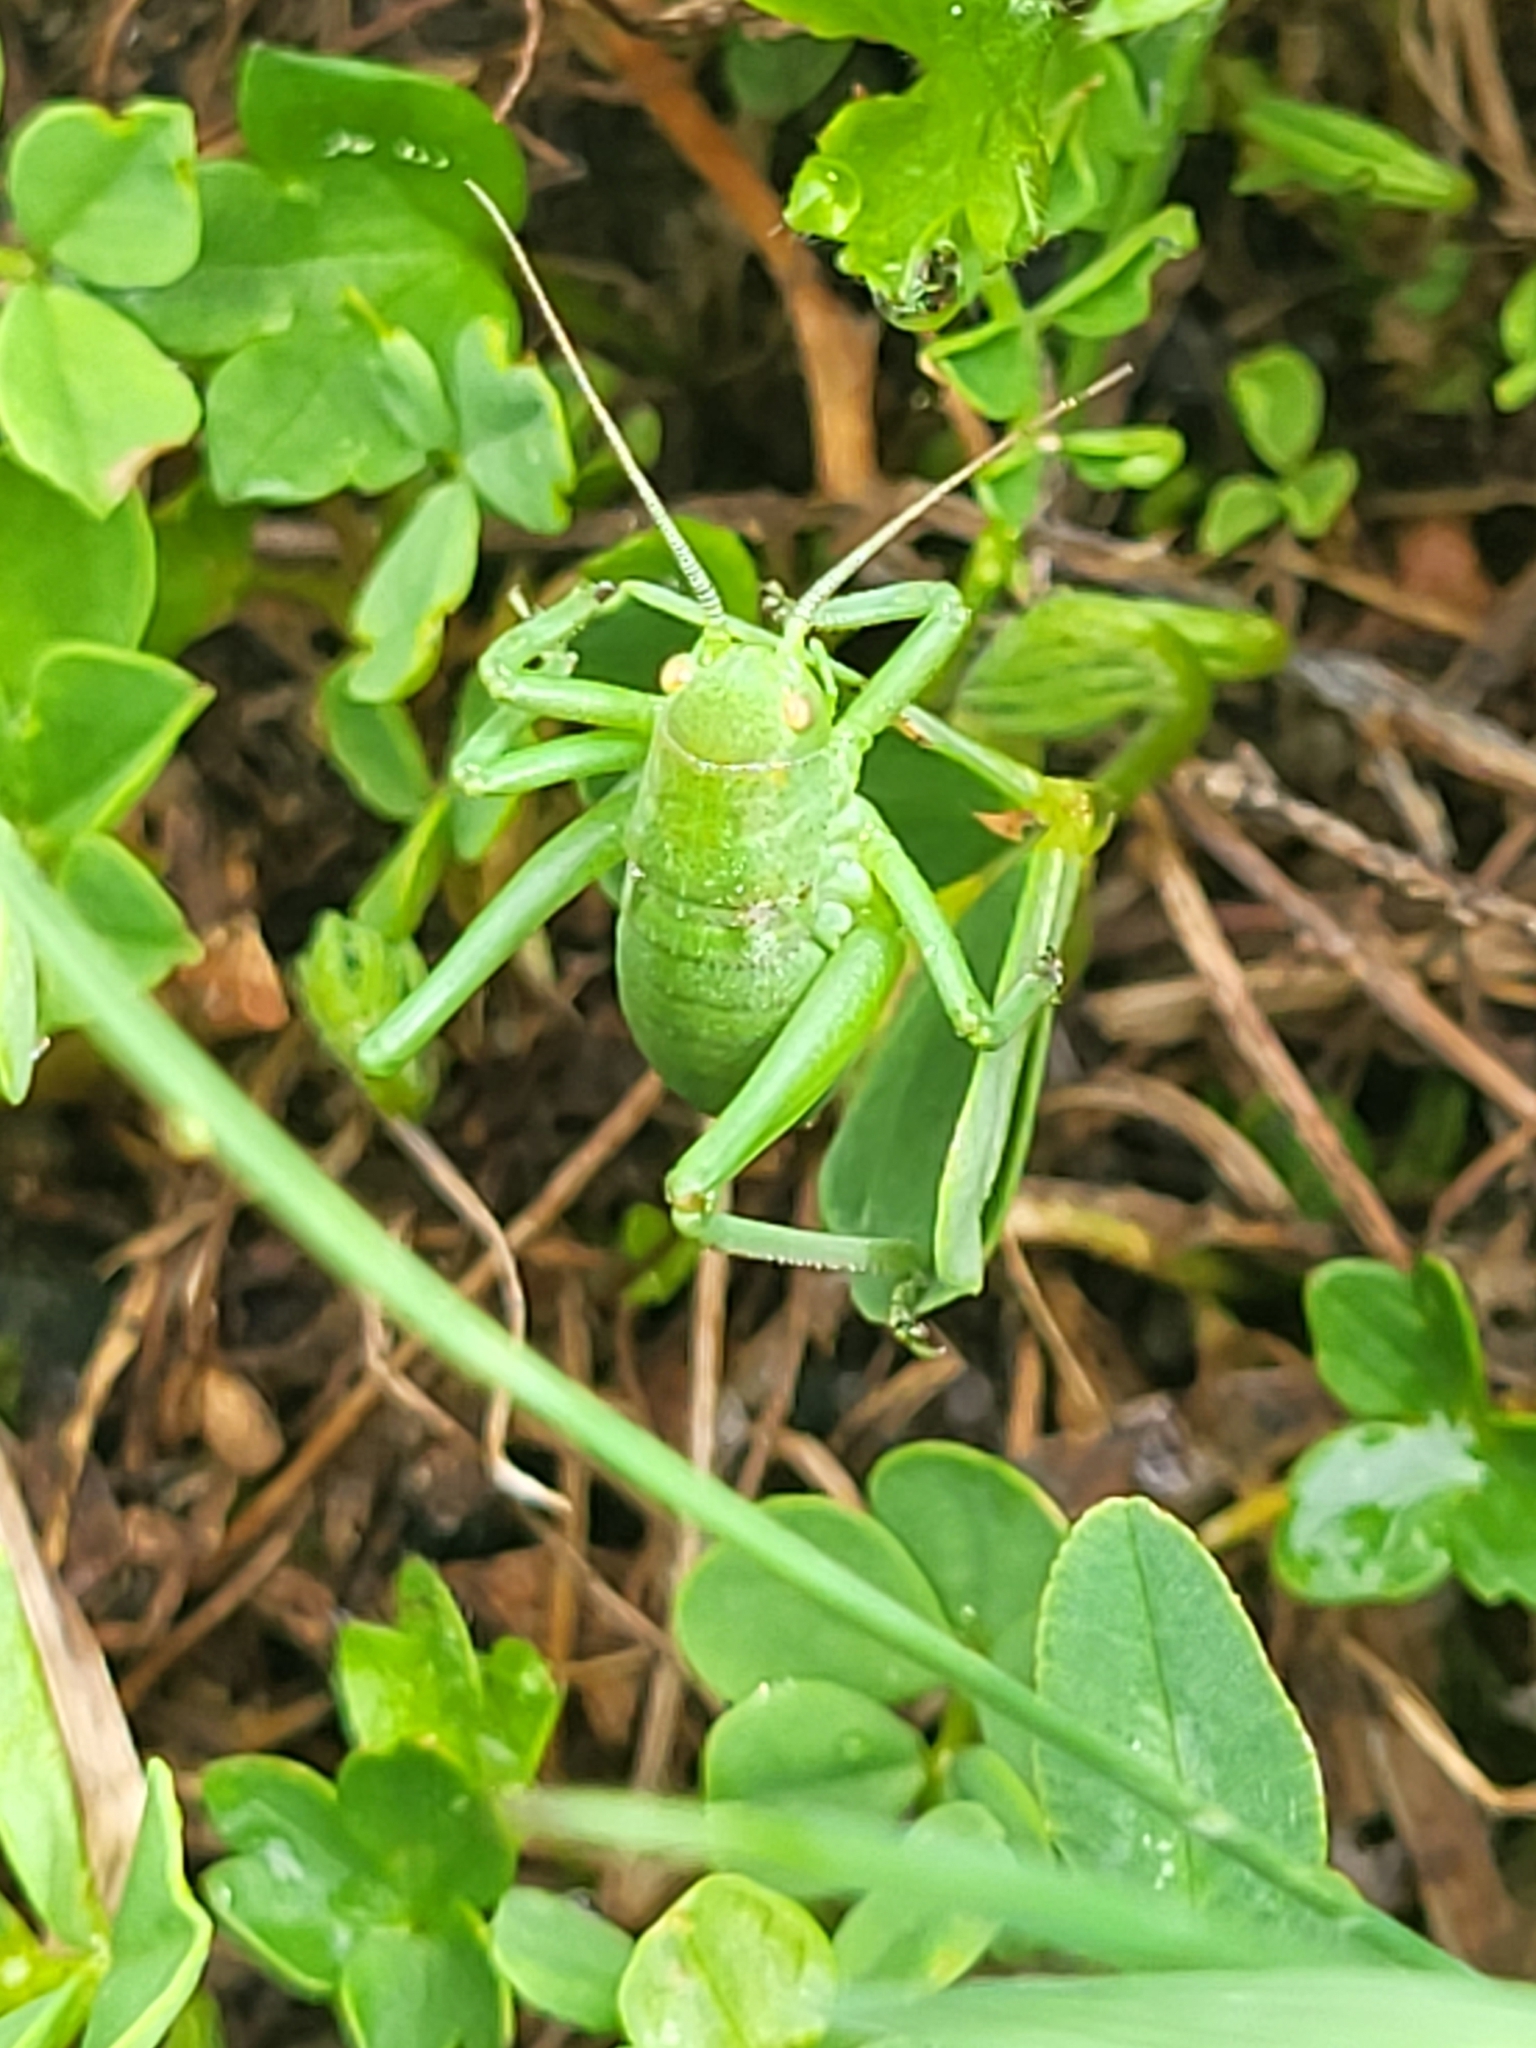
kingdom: Animalia
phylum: Arthropoda
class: Insecta
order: Orthoptera
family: Tettigoniidae
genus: Polysarcus
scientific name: Polysarcus zacharovi
